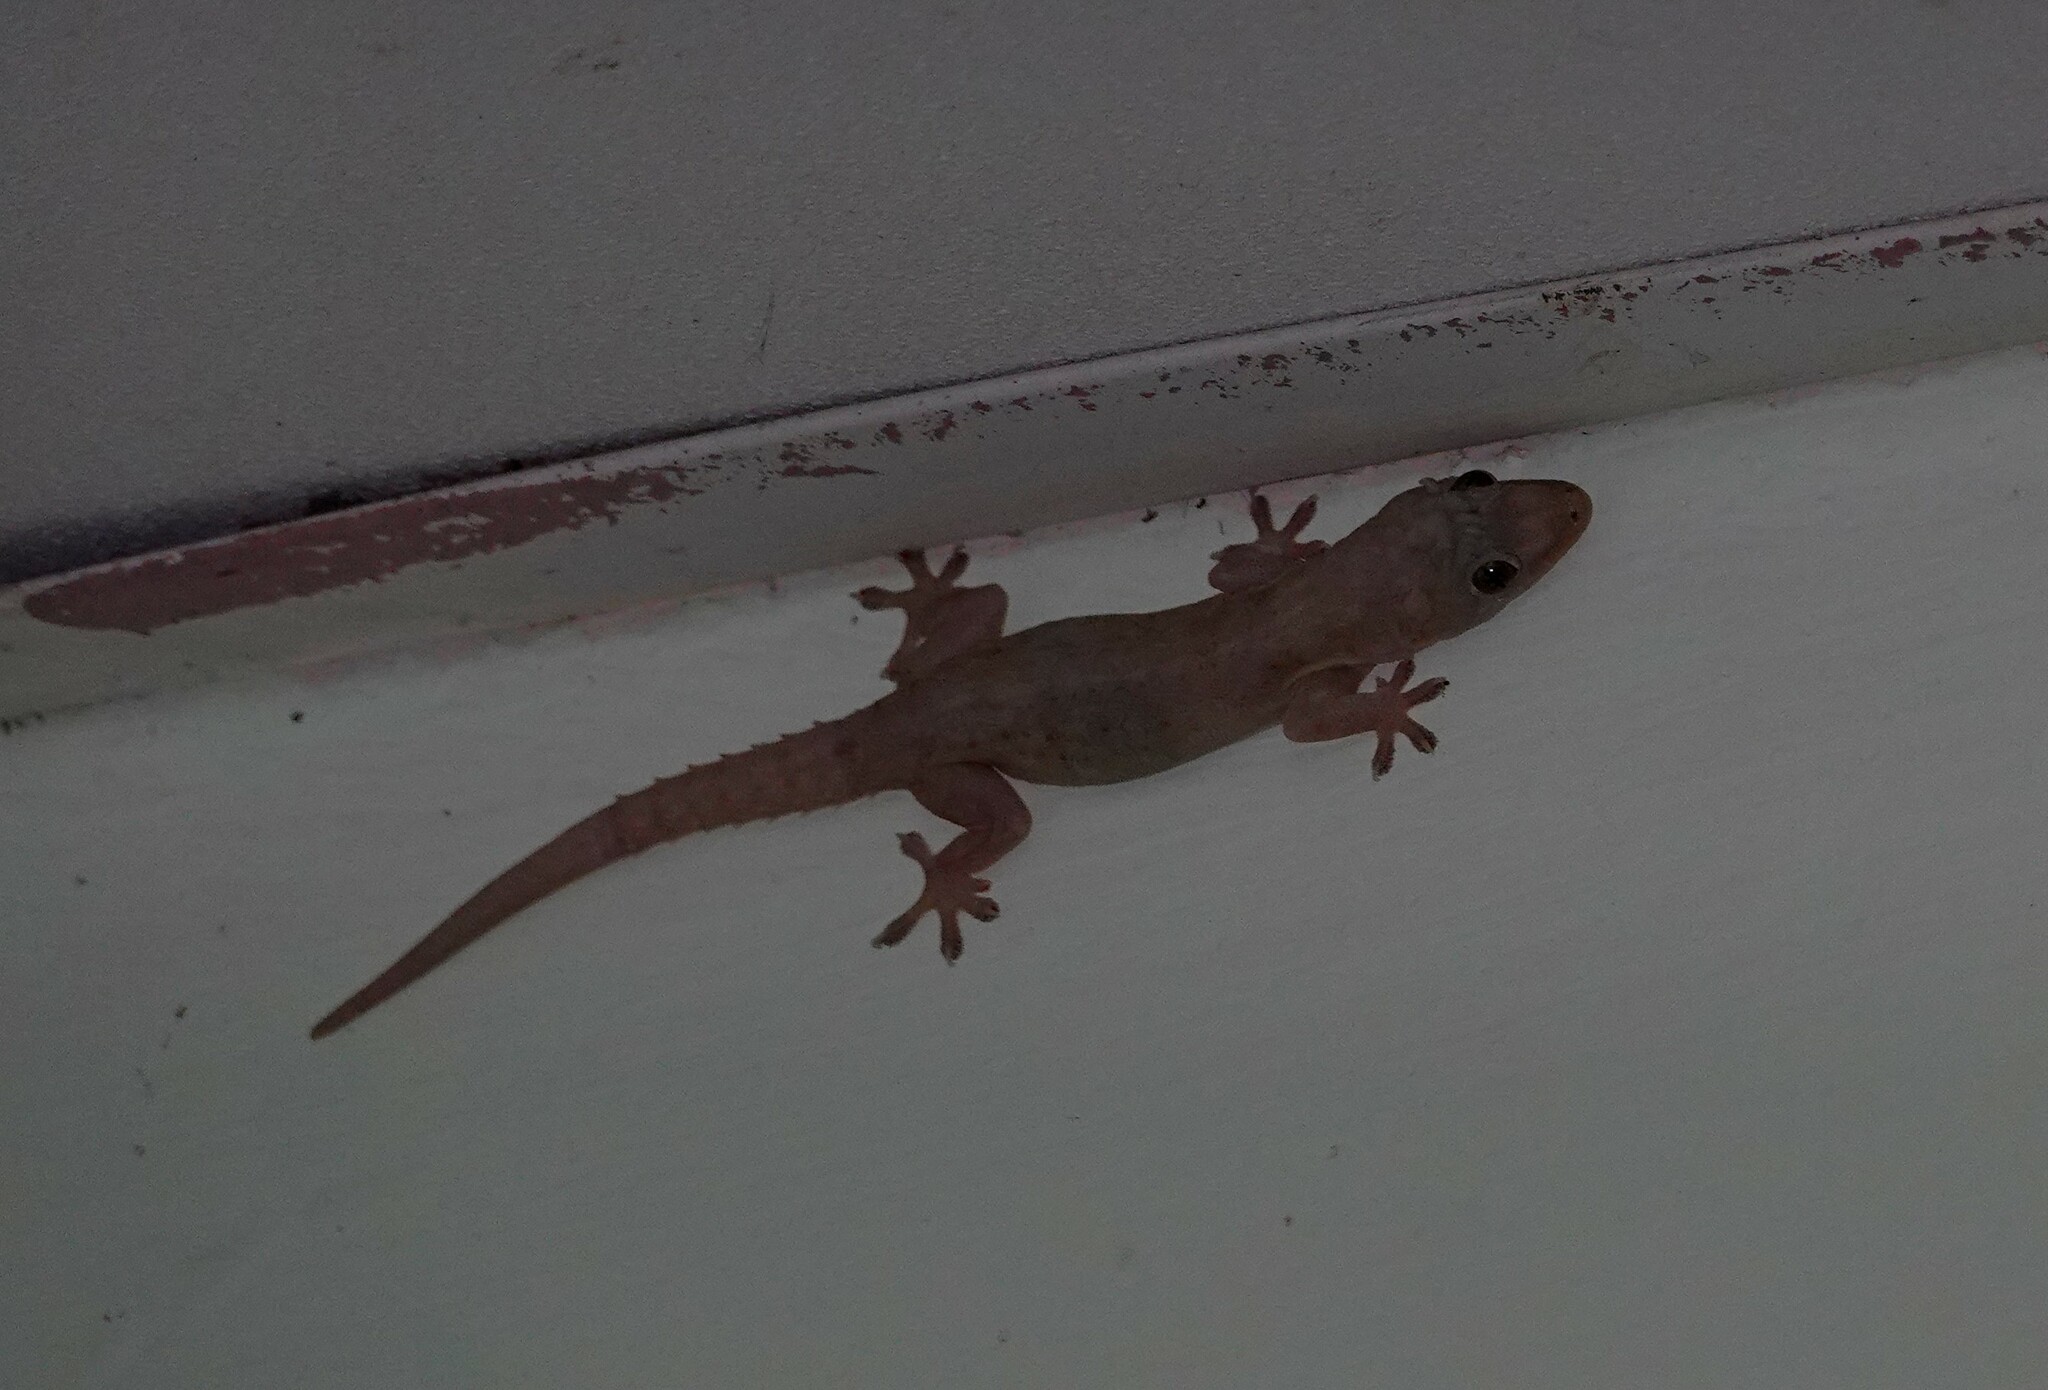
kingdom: Animalia
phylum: Chordata
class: Squamata
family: Gekkonidae
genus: Hemidactylus
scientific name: Hemidactylus frenatus
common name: Common house gecko
